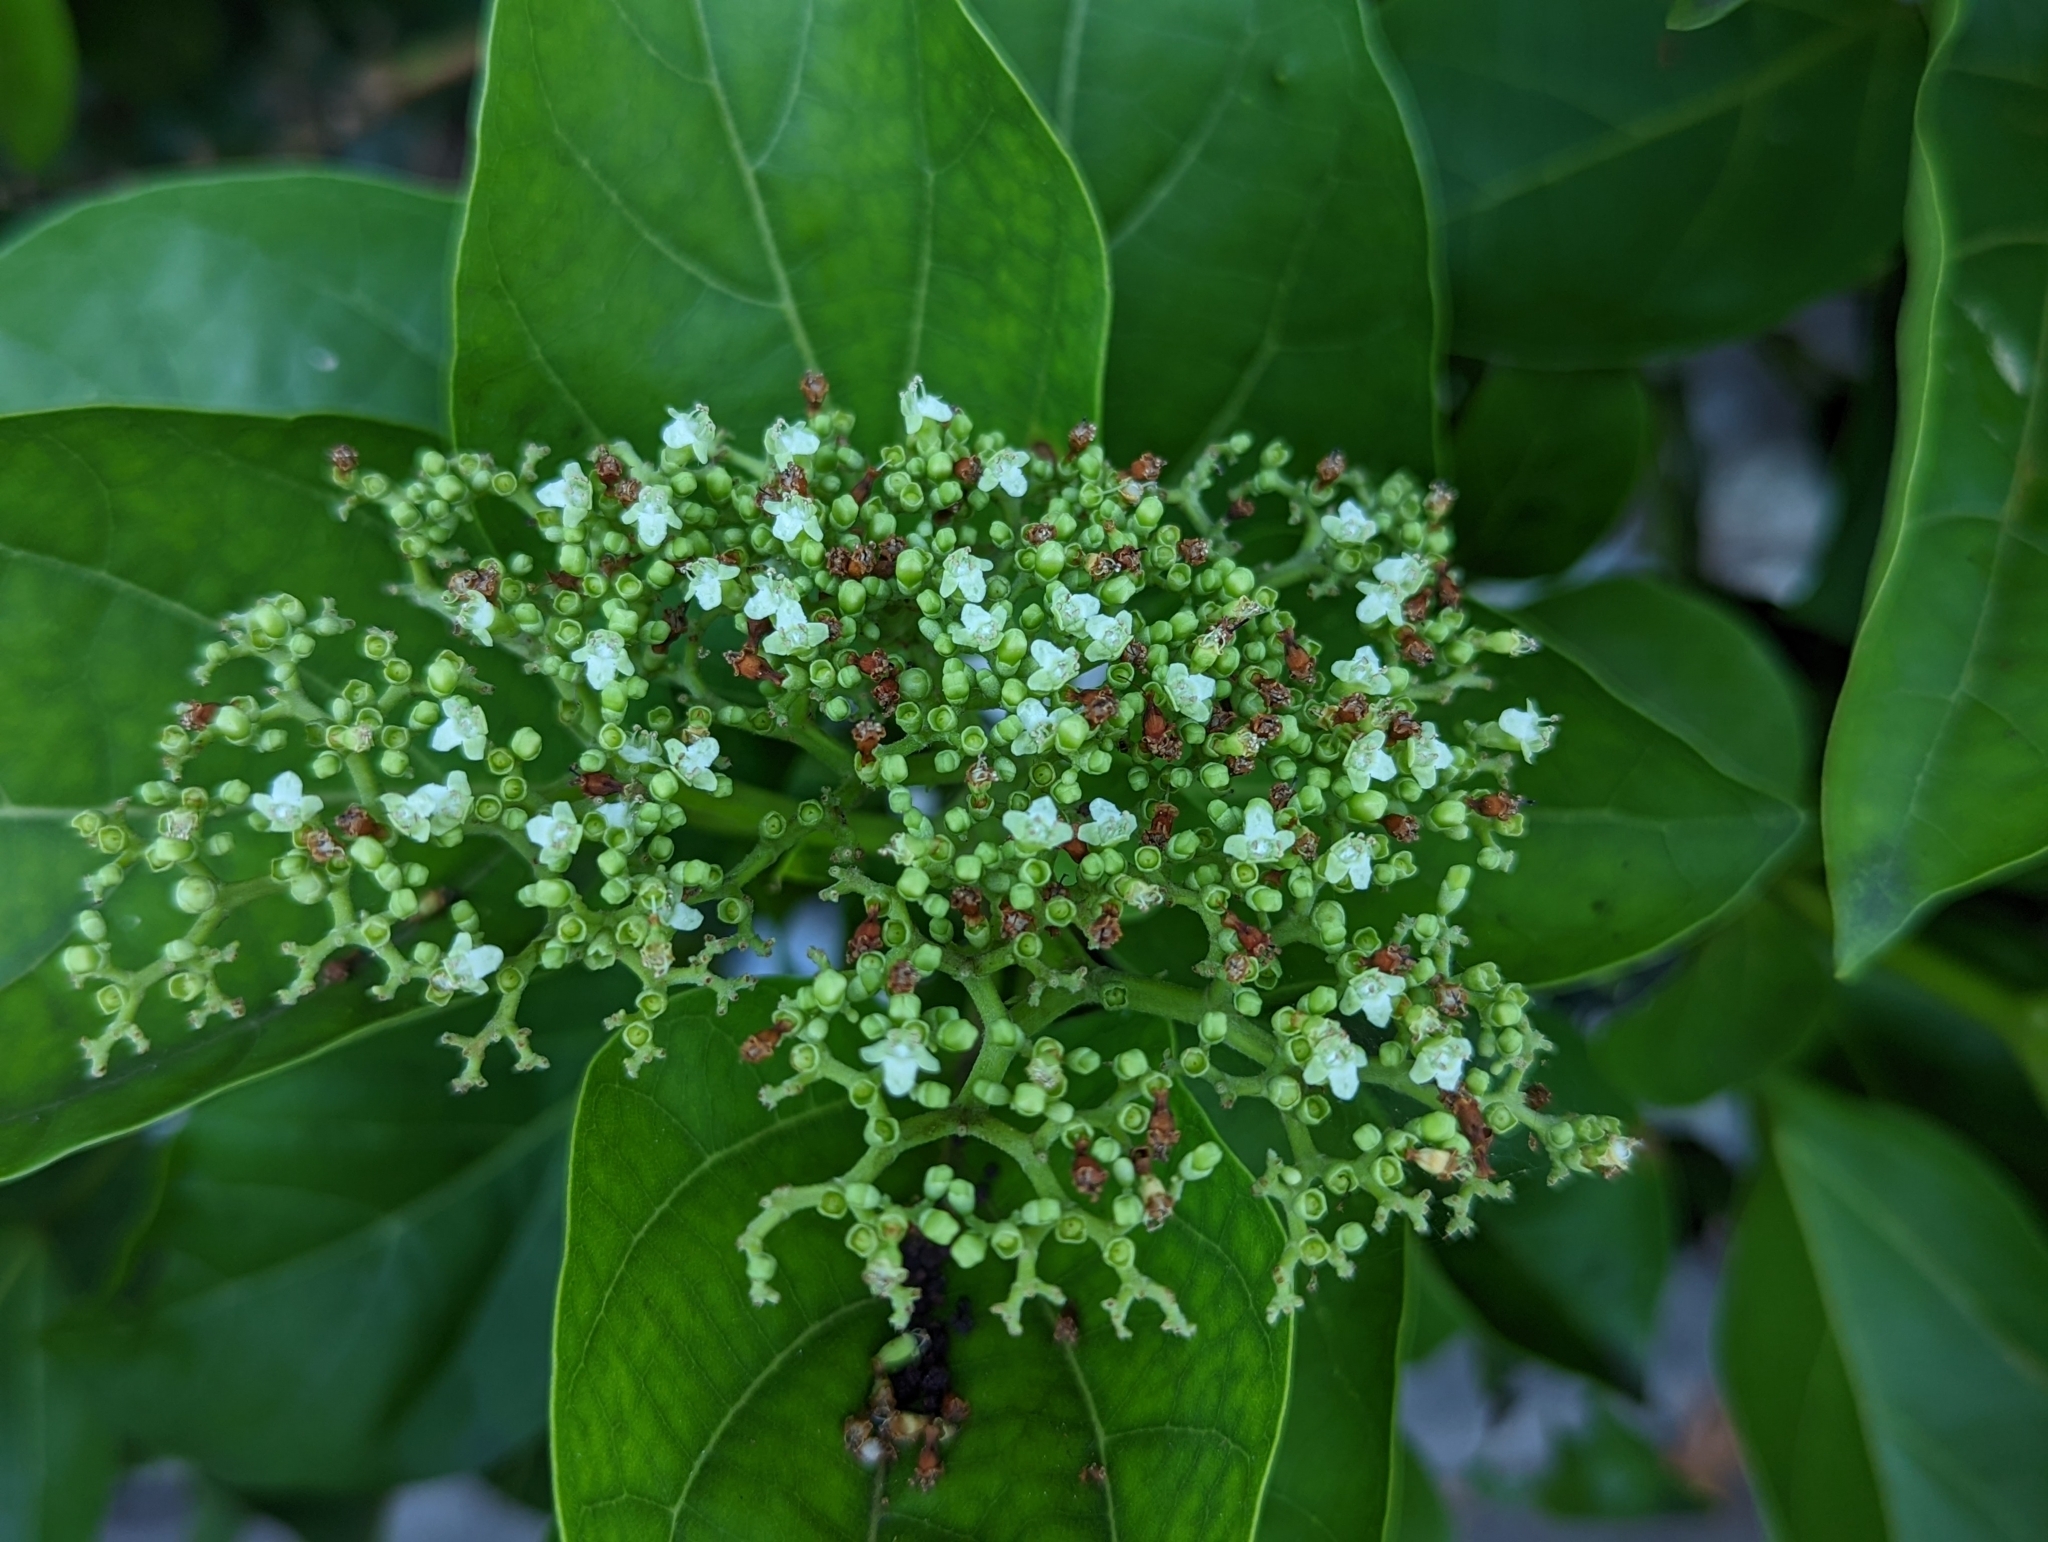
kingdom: Plantae
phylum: Tracheophyta
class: Magnoliopsida
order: Lamiales
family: Lamiaceae
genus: Premna
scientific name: Premna serratifolia
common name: Bastard guelder
